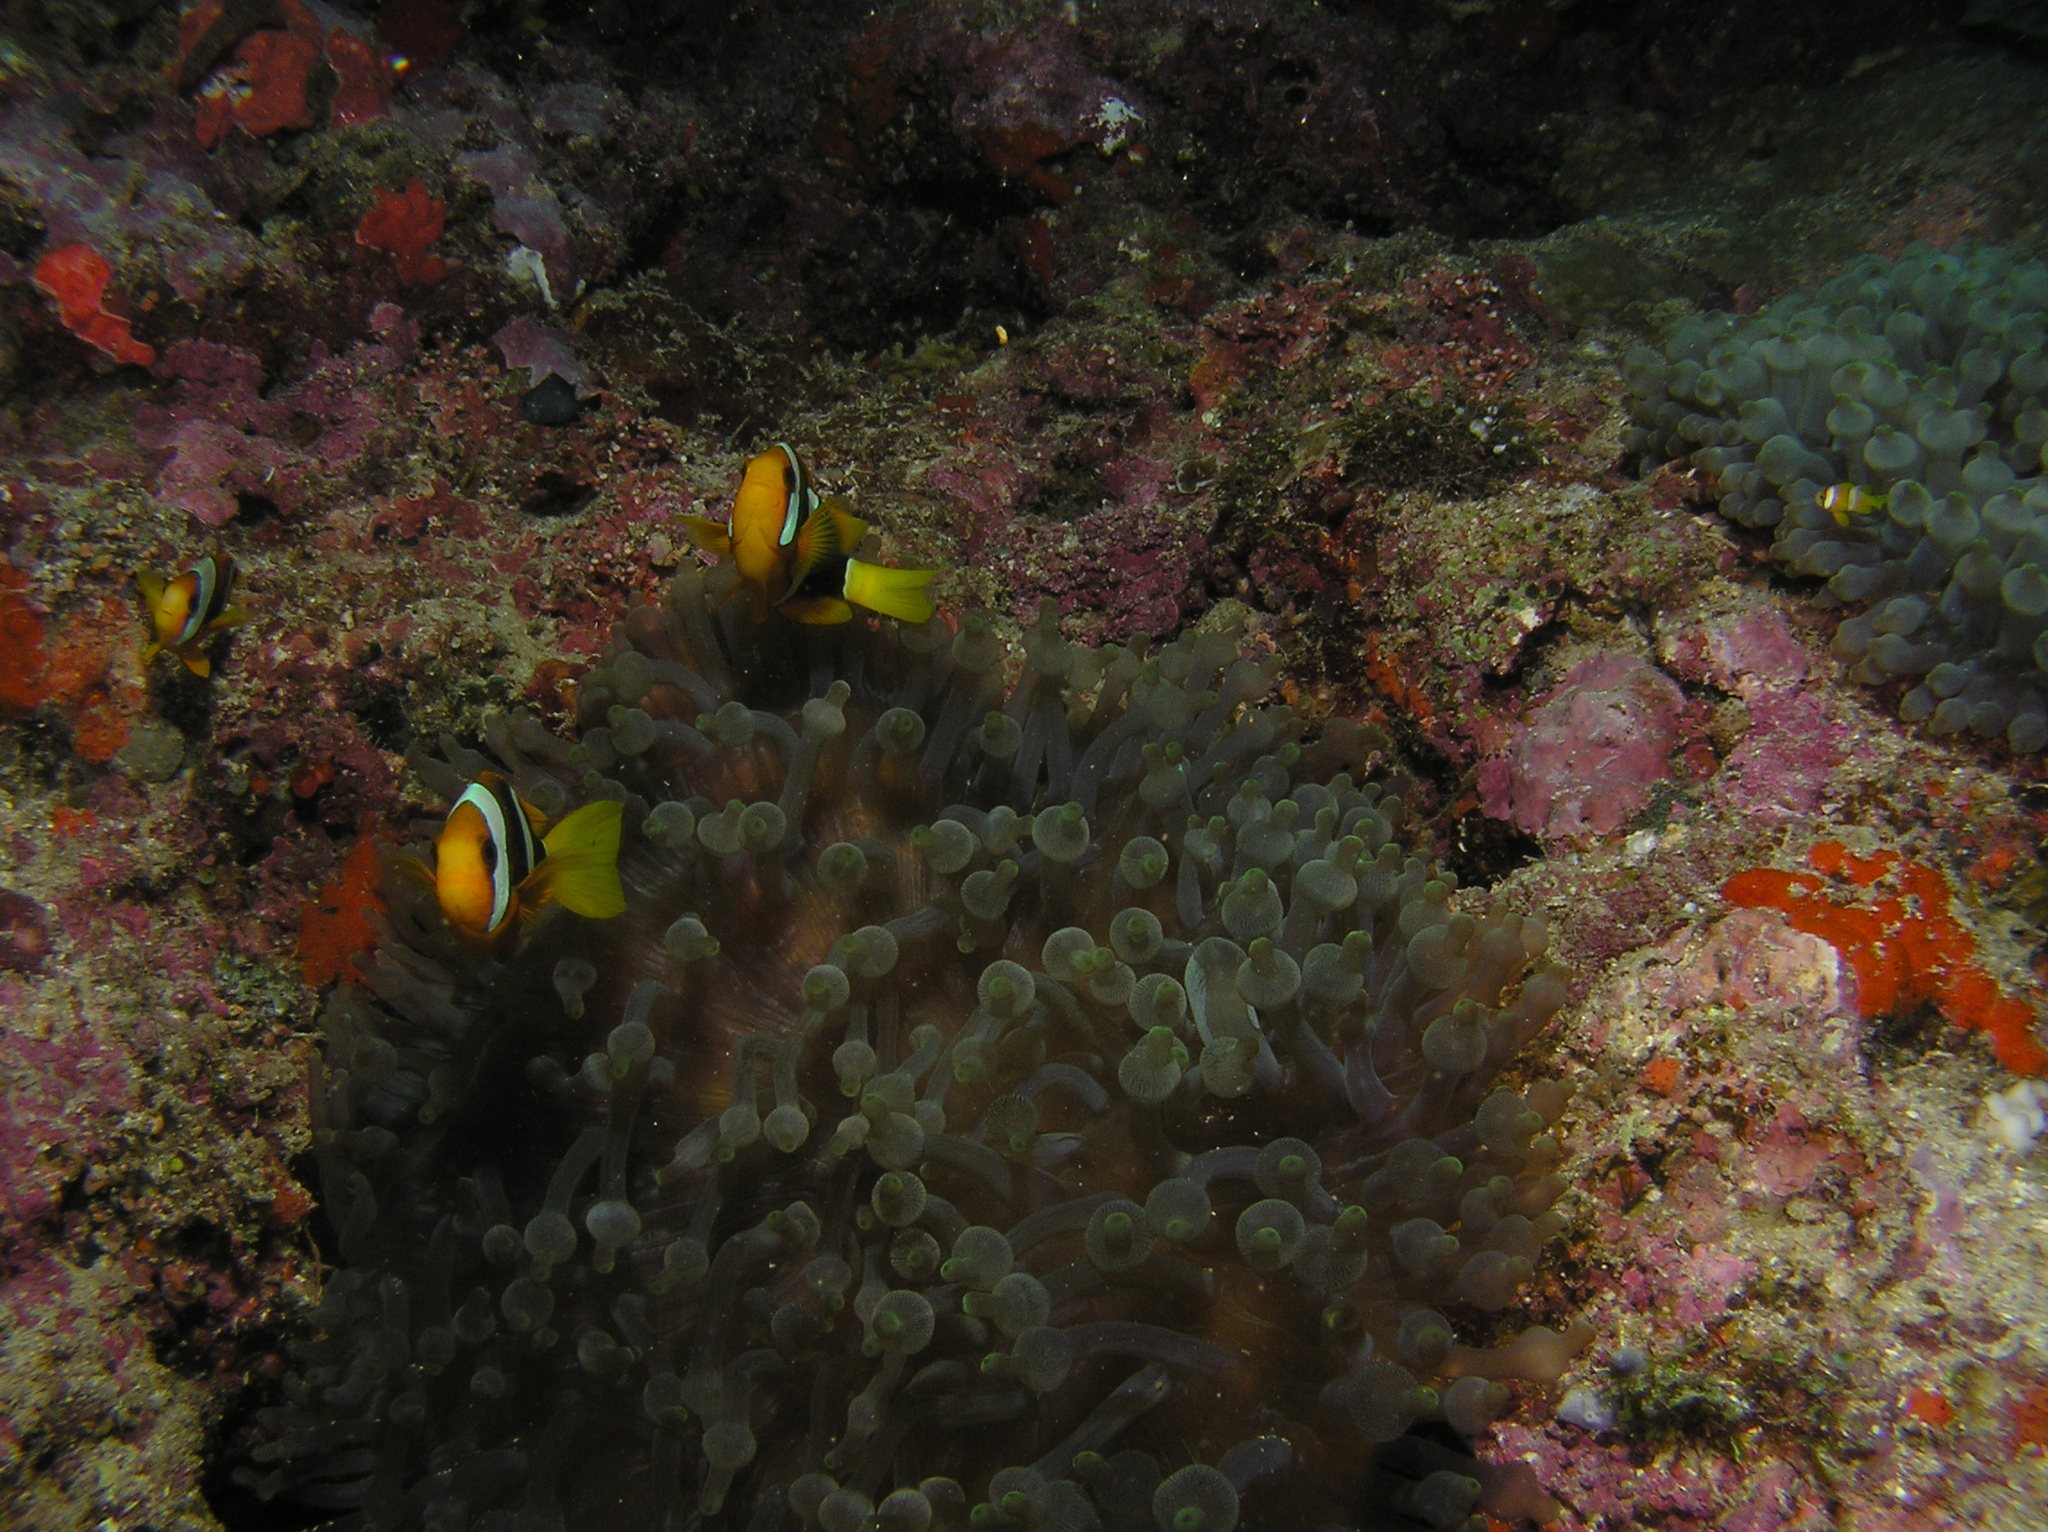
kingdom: Animalia
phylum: Chordata
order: Perciformes
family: Pomacentridae
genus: Amphiprion
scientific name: Amphiprion clarkii
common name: Clark's anemonefish
